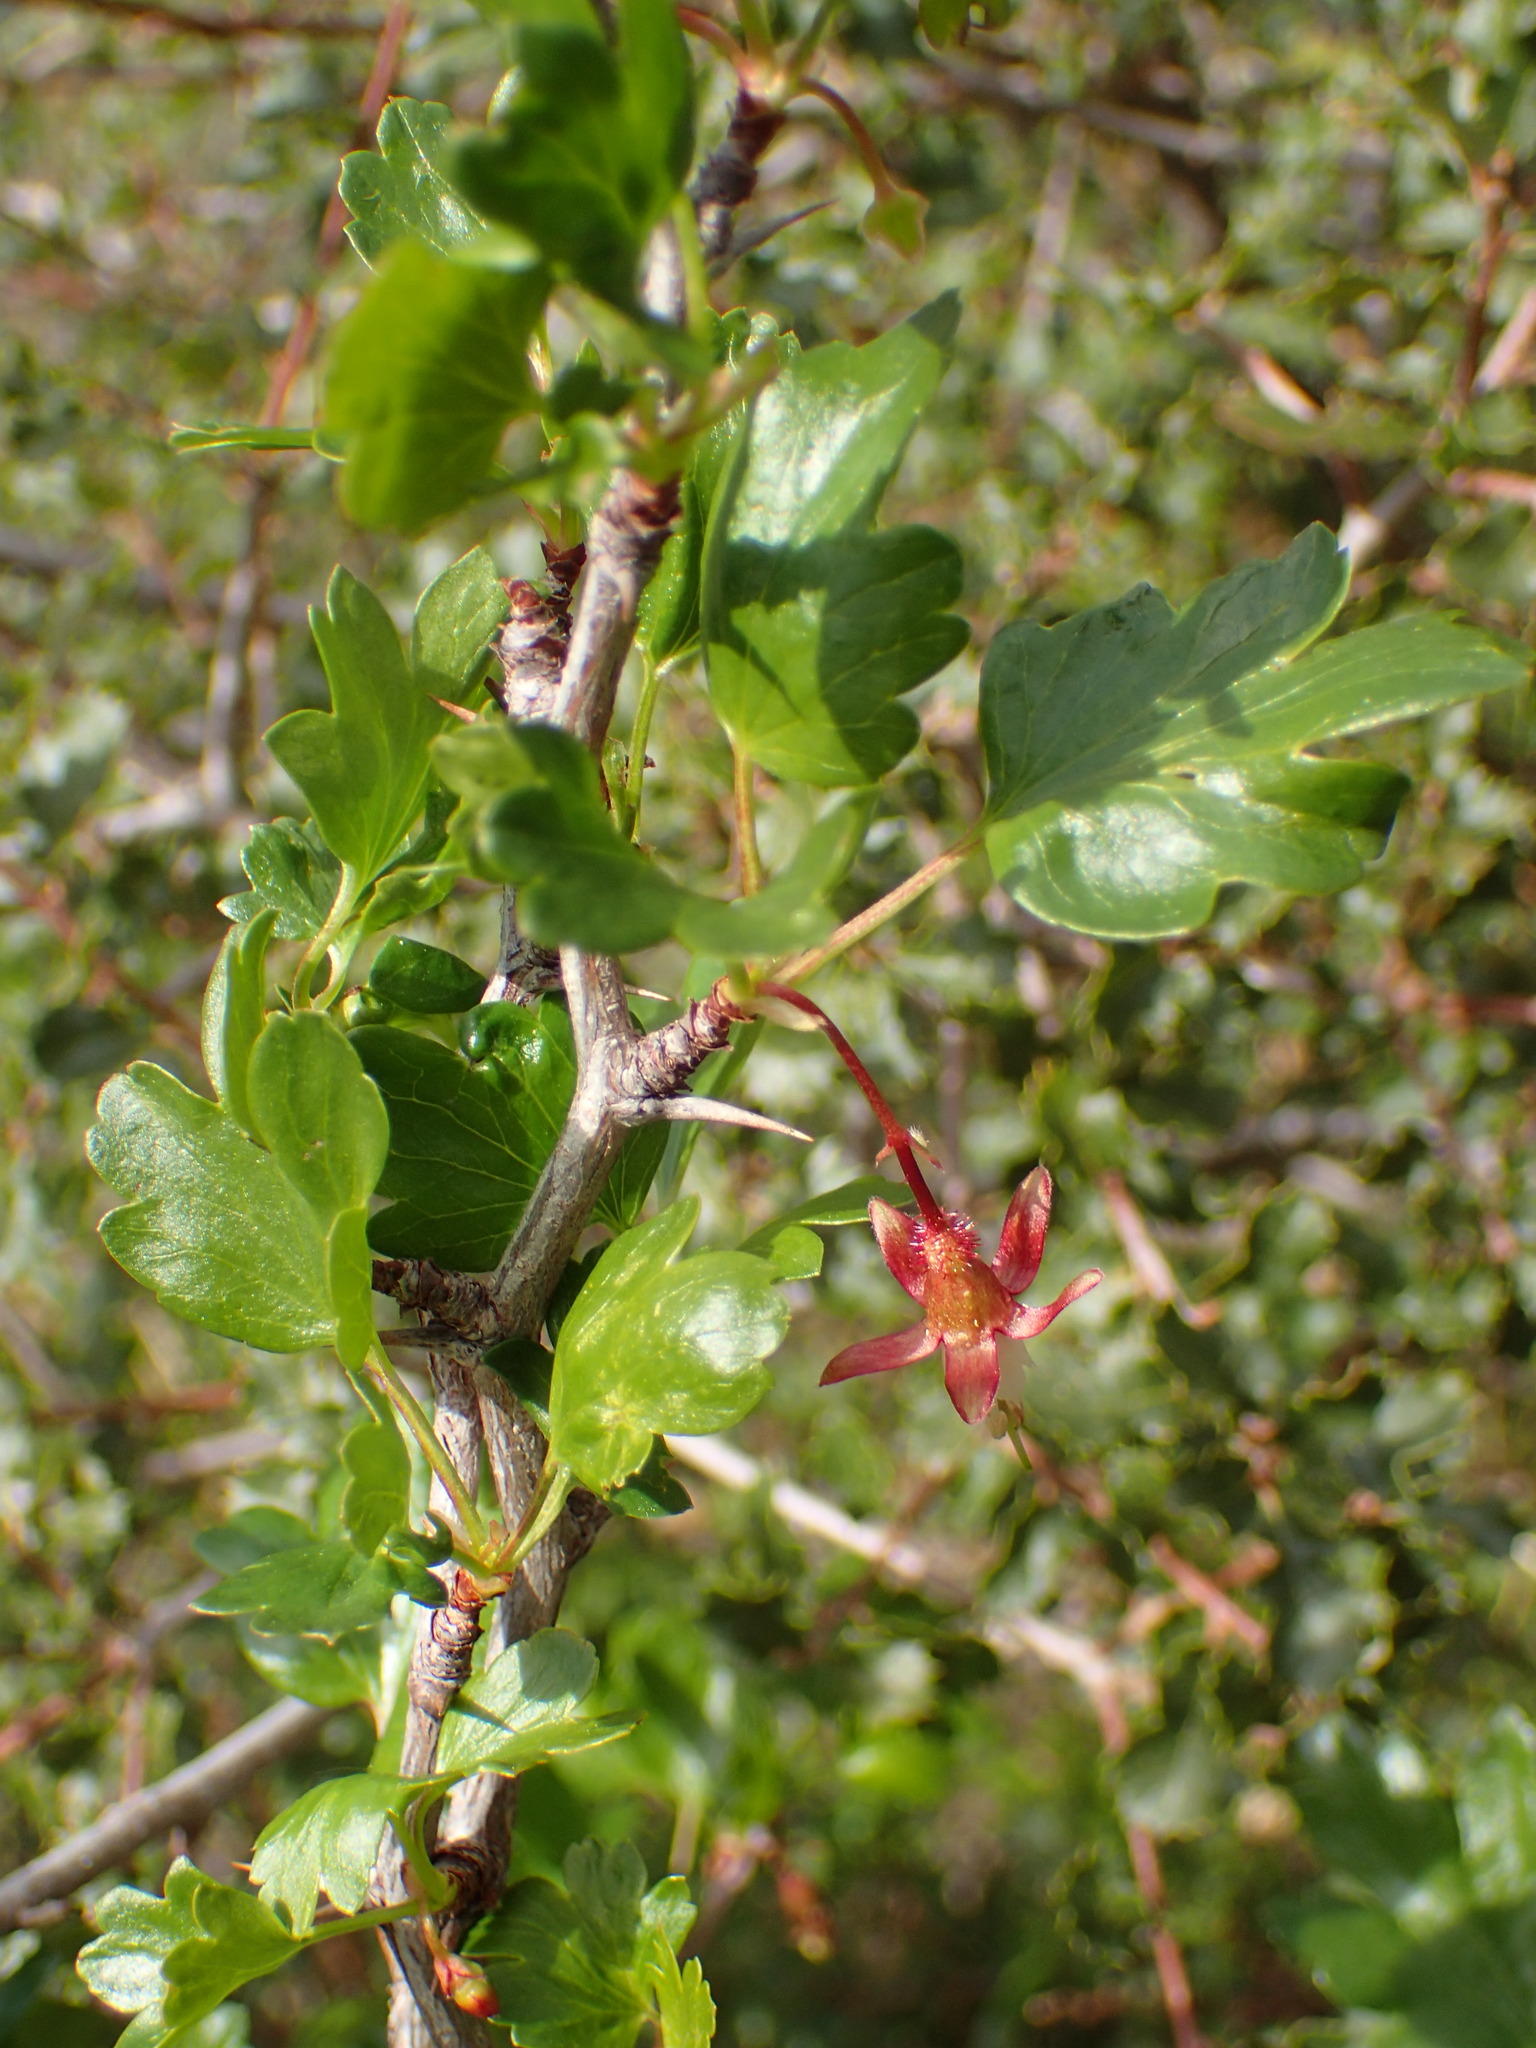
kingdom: Plantae
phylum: Tracheophyta
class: Magnoliopsida
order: Saxifragales
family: Grossulariaceae
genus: Ribes
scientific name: Ribes californicum
